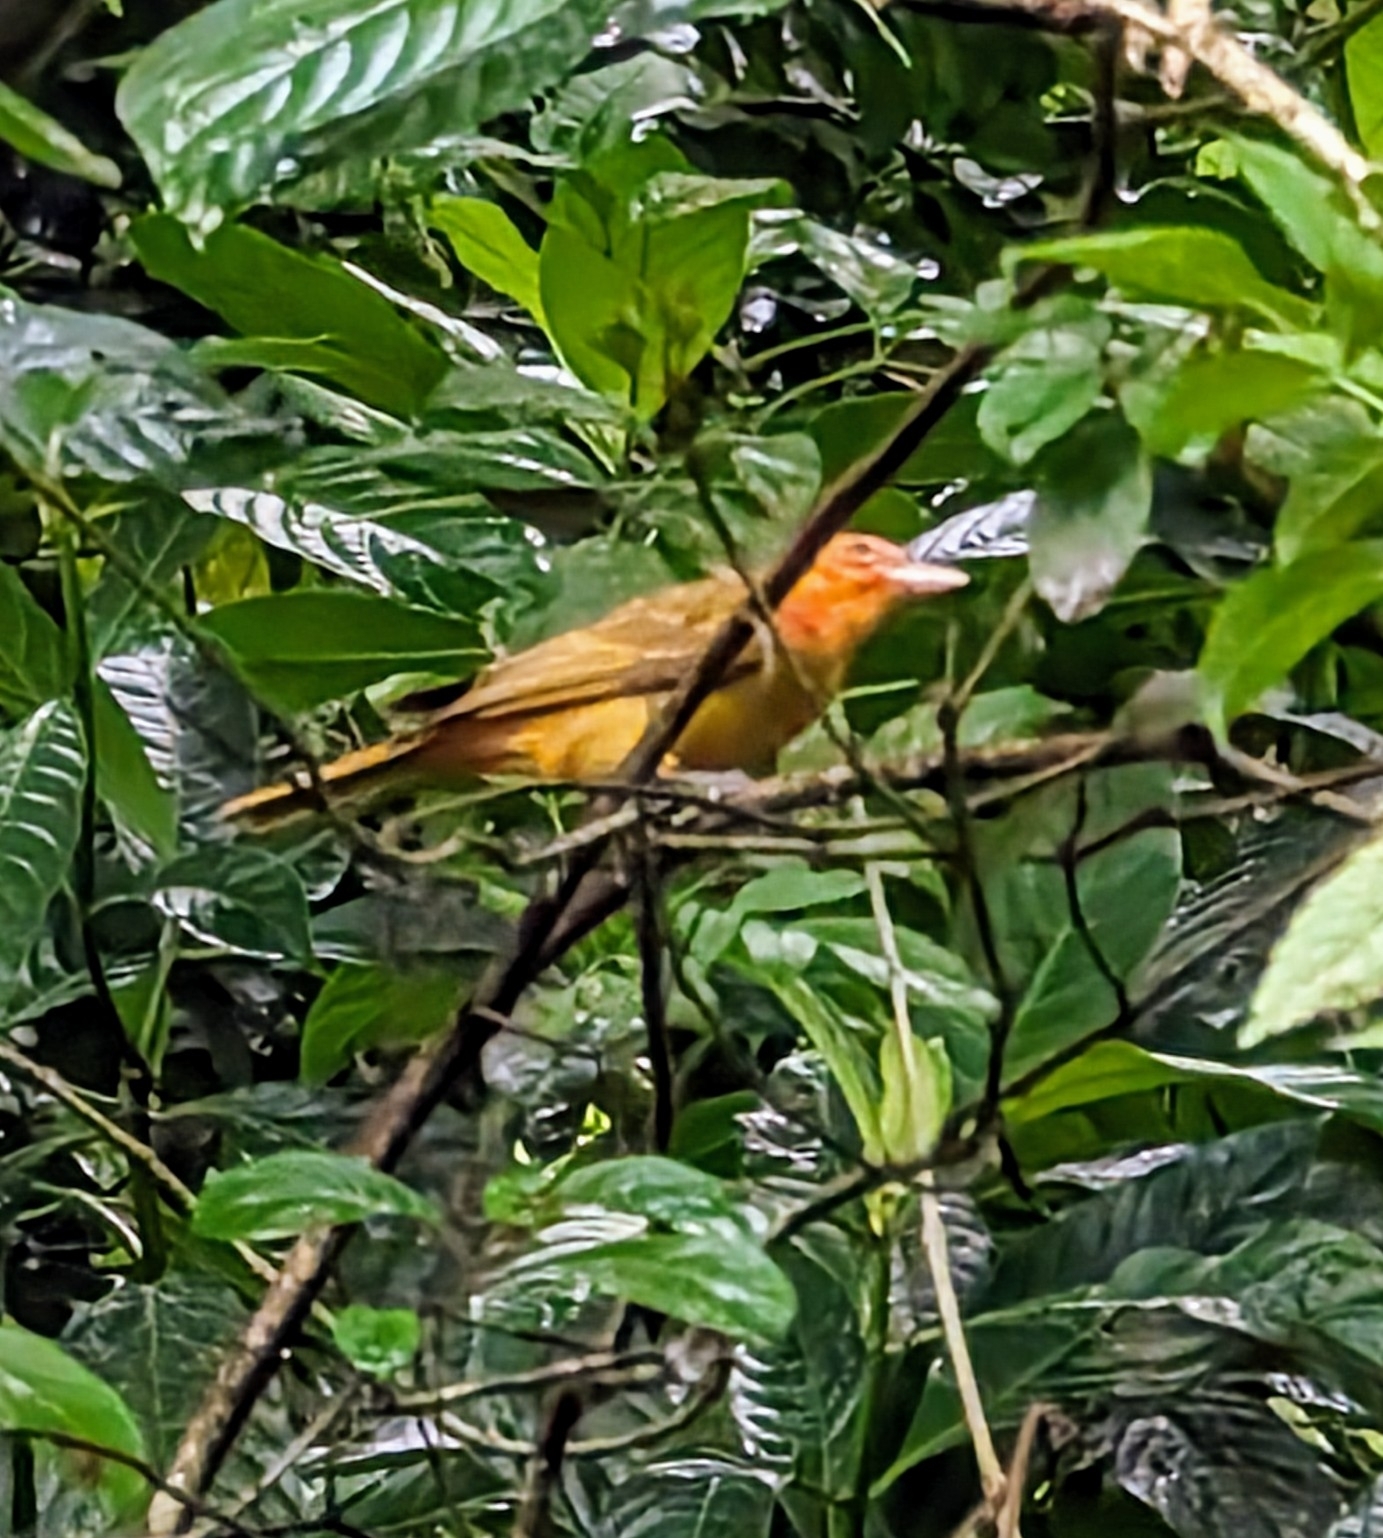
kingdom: Animalia
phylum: Chordata
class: Aves
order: Passeriformes
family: Cardinalidae
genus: Piranga
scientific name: Piranga rubra
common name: Summer tanager
